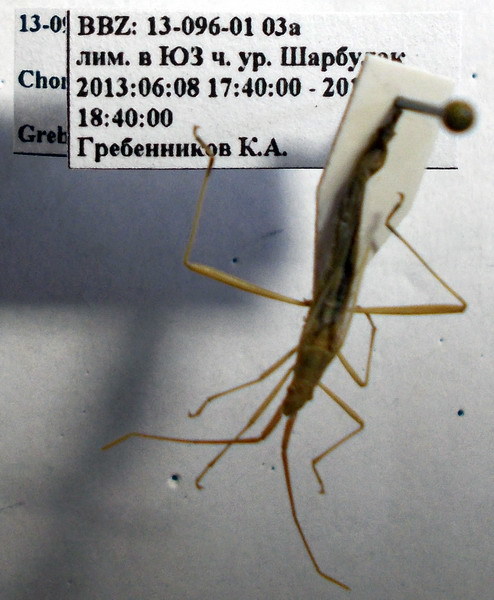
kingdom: Animalia
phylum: Arthropoda
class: Insecta
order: Hemiptera
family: Rhopalidae
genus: Chorosoma
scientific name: Chorosoma schillingii
